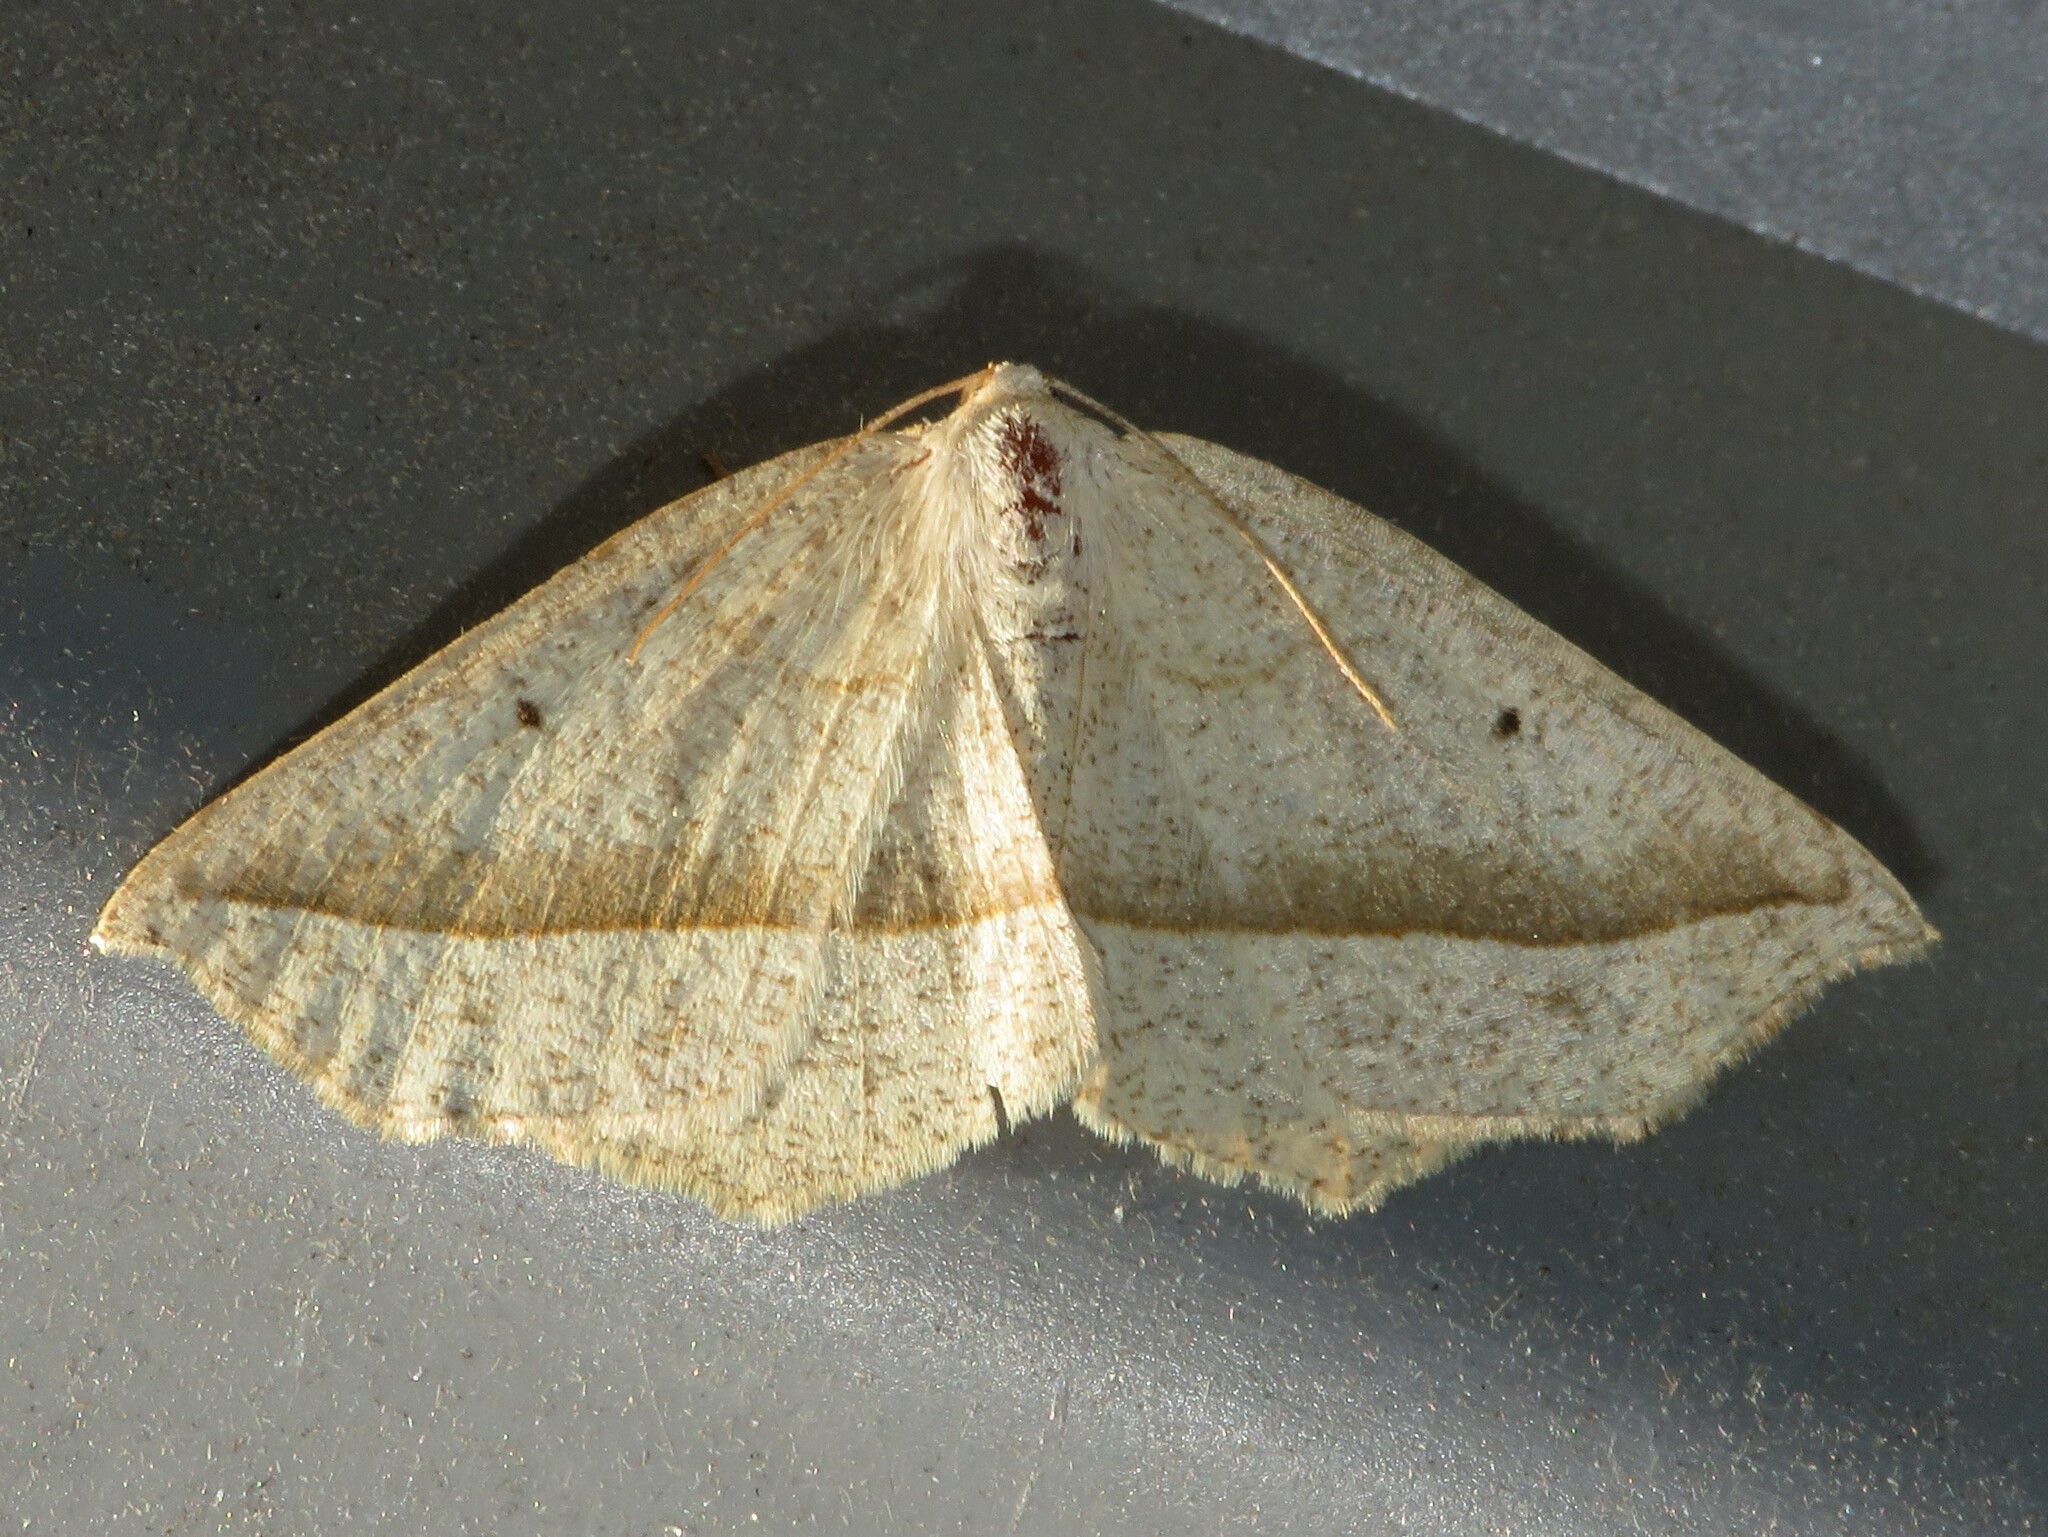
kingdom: Animalia
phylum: Arthropoda
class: Insecta
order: Lepidoptera
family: Geometridae
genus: Eusarca
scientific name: Eusarca confusaria
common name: Confused eusarca
